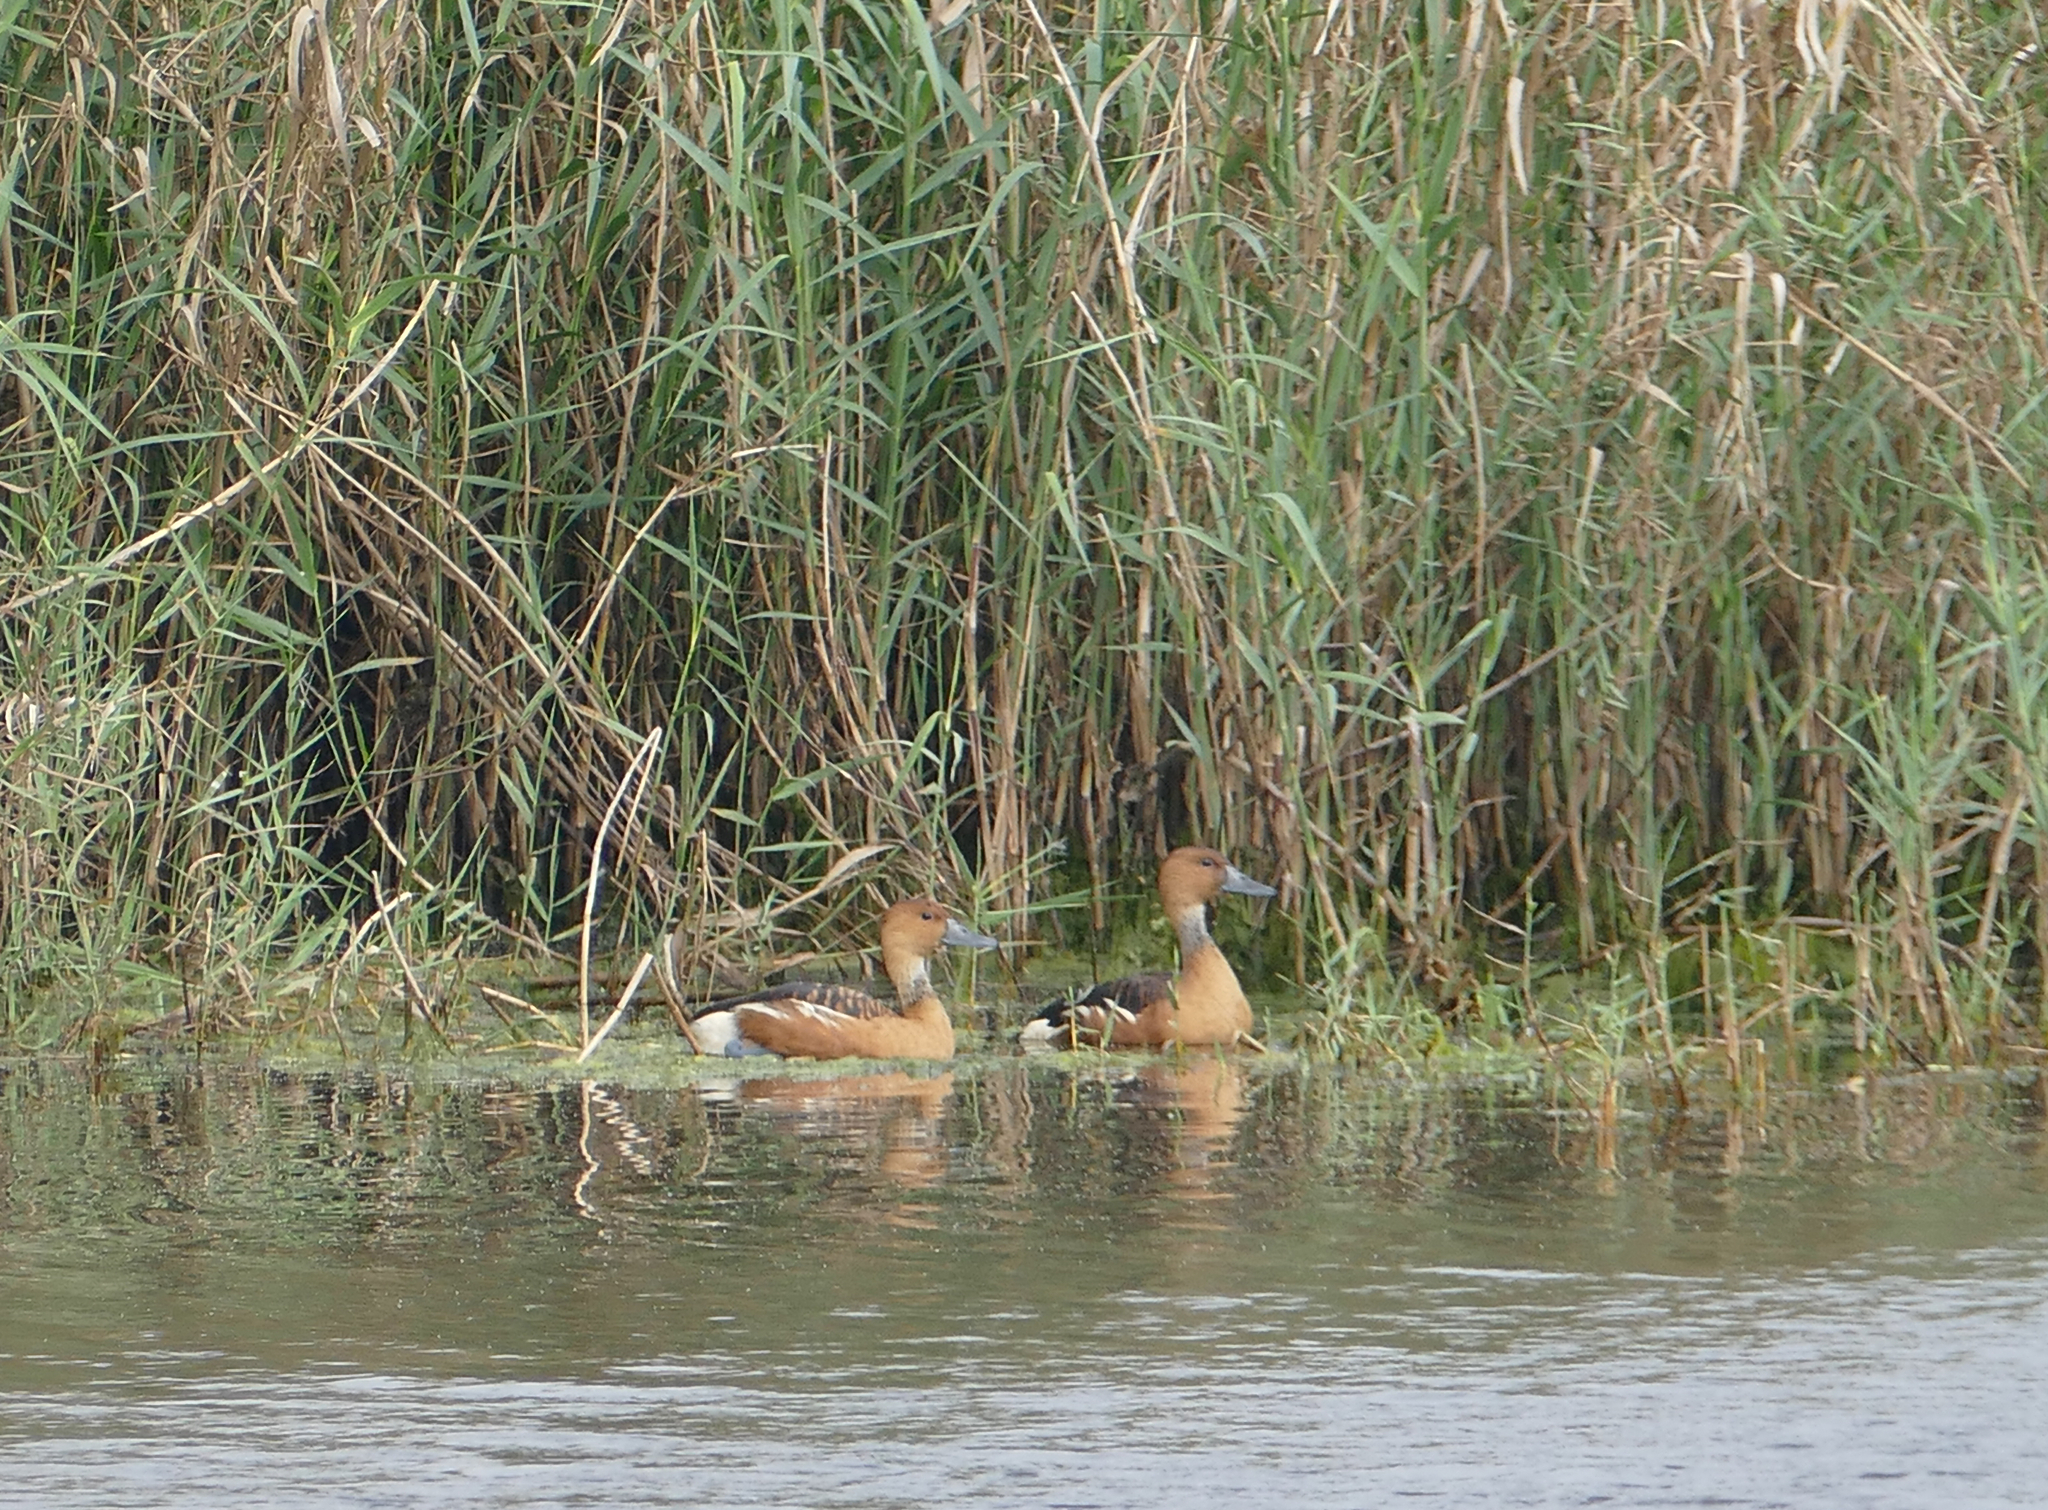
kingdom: Animalia
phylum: Chordata
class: Aves
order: Anseriformes
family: Anatidae
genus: Dendrocygna
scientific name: Dendrocygna bicolor
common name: Fulvous whistling duck
